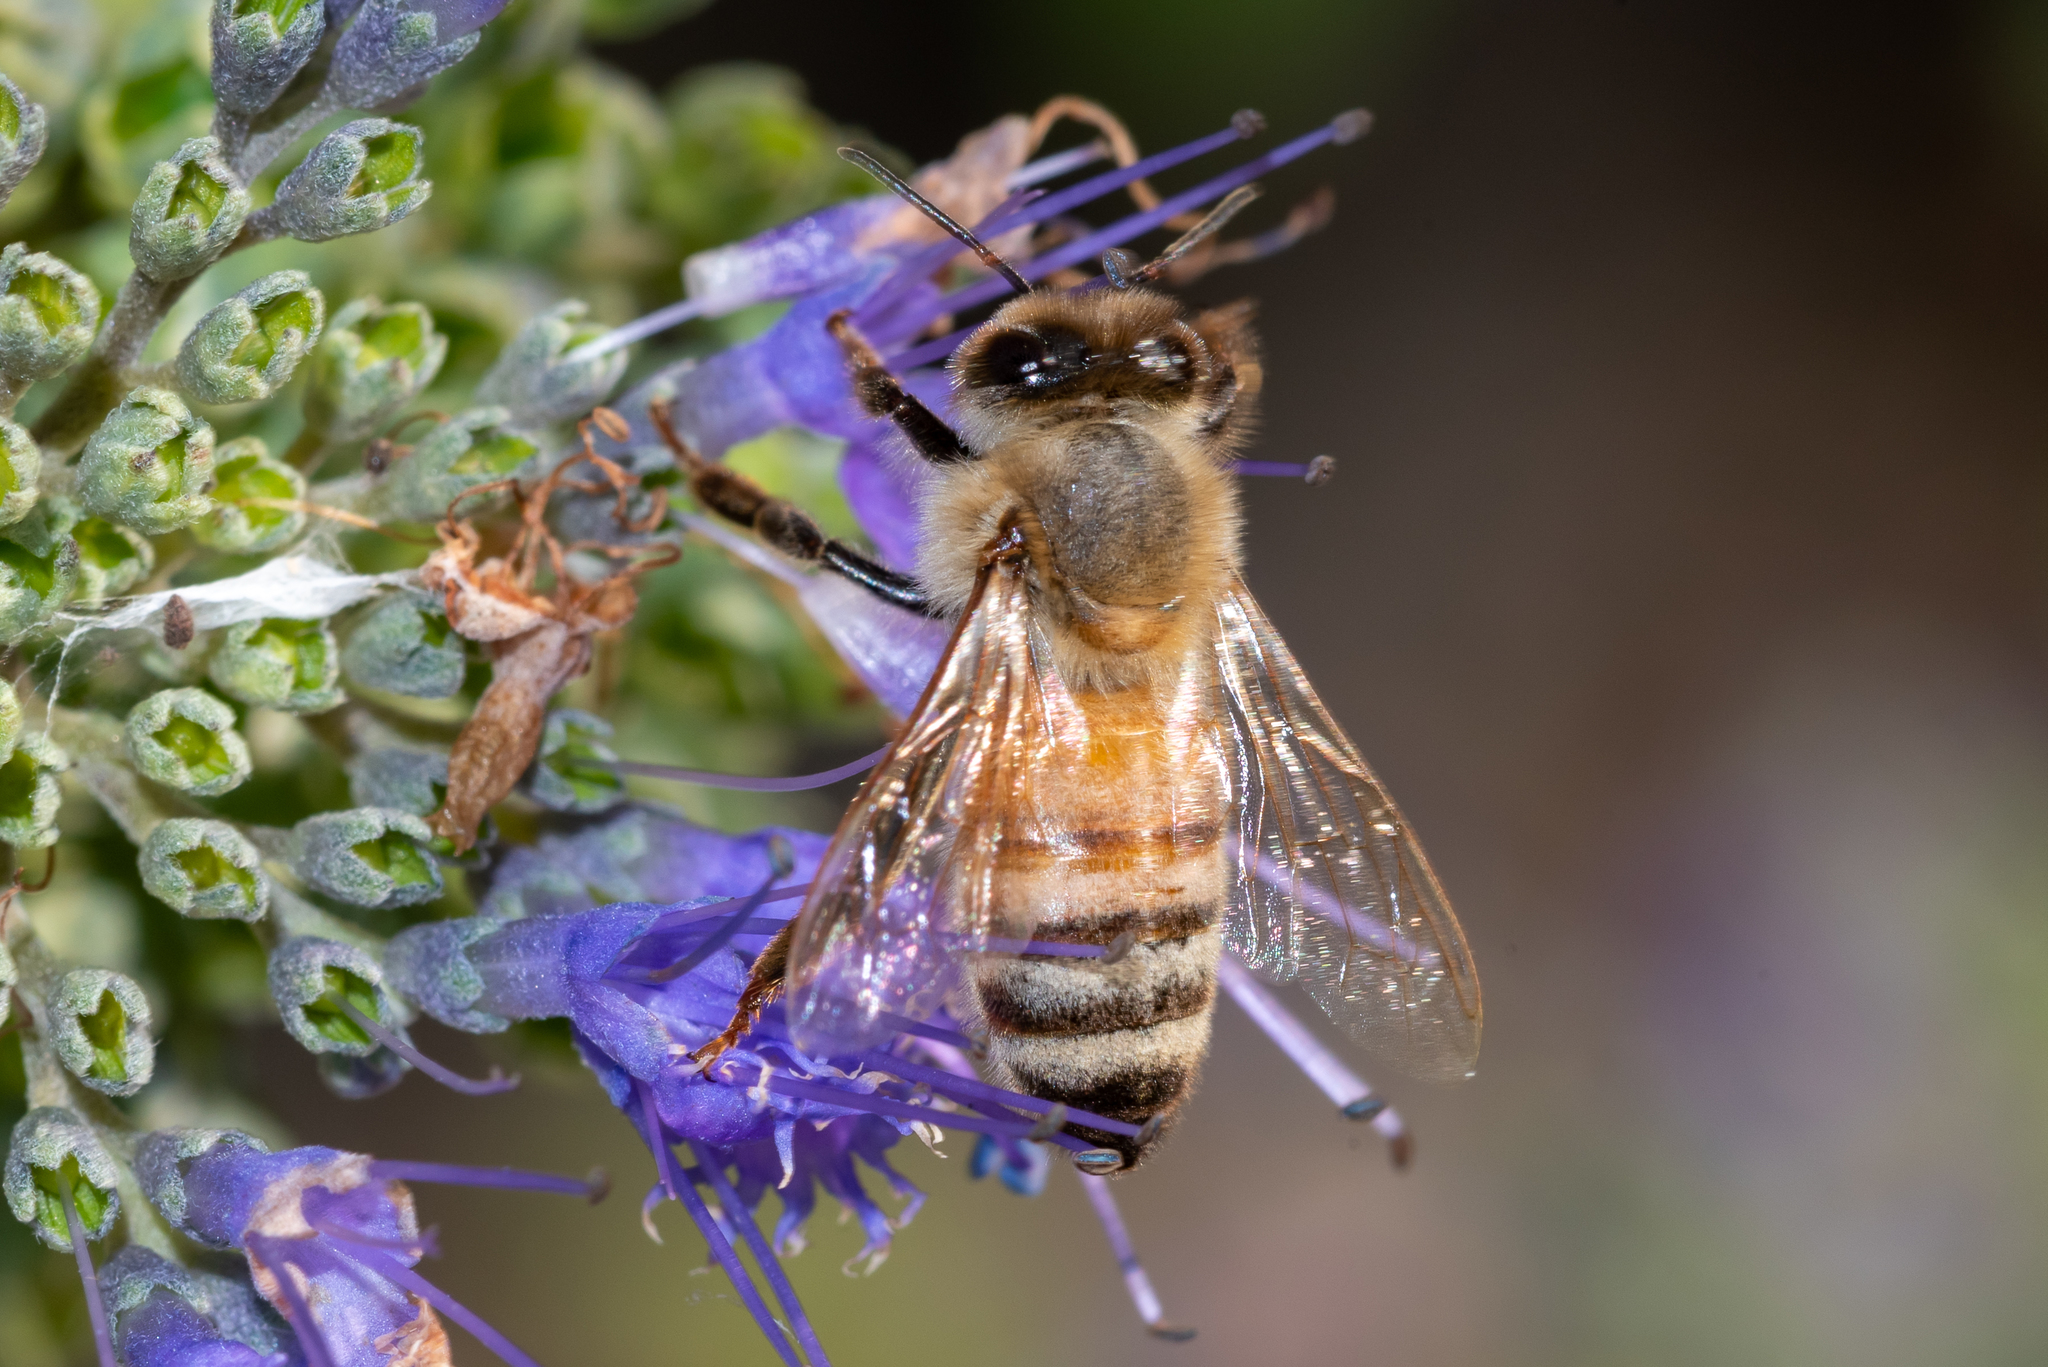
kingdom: Animalia
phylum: Arthropoda
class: Insecta
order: Hymenoptera
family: Apidae
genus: Apis
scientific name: Apis mellifera
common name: Honey bee
